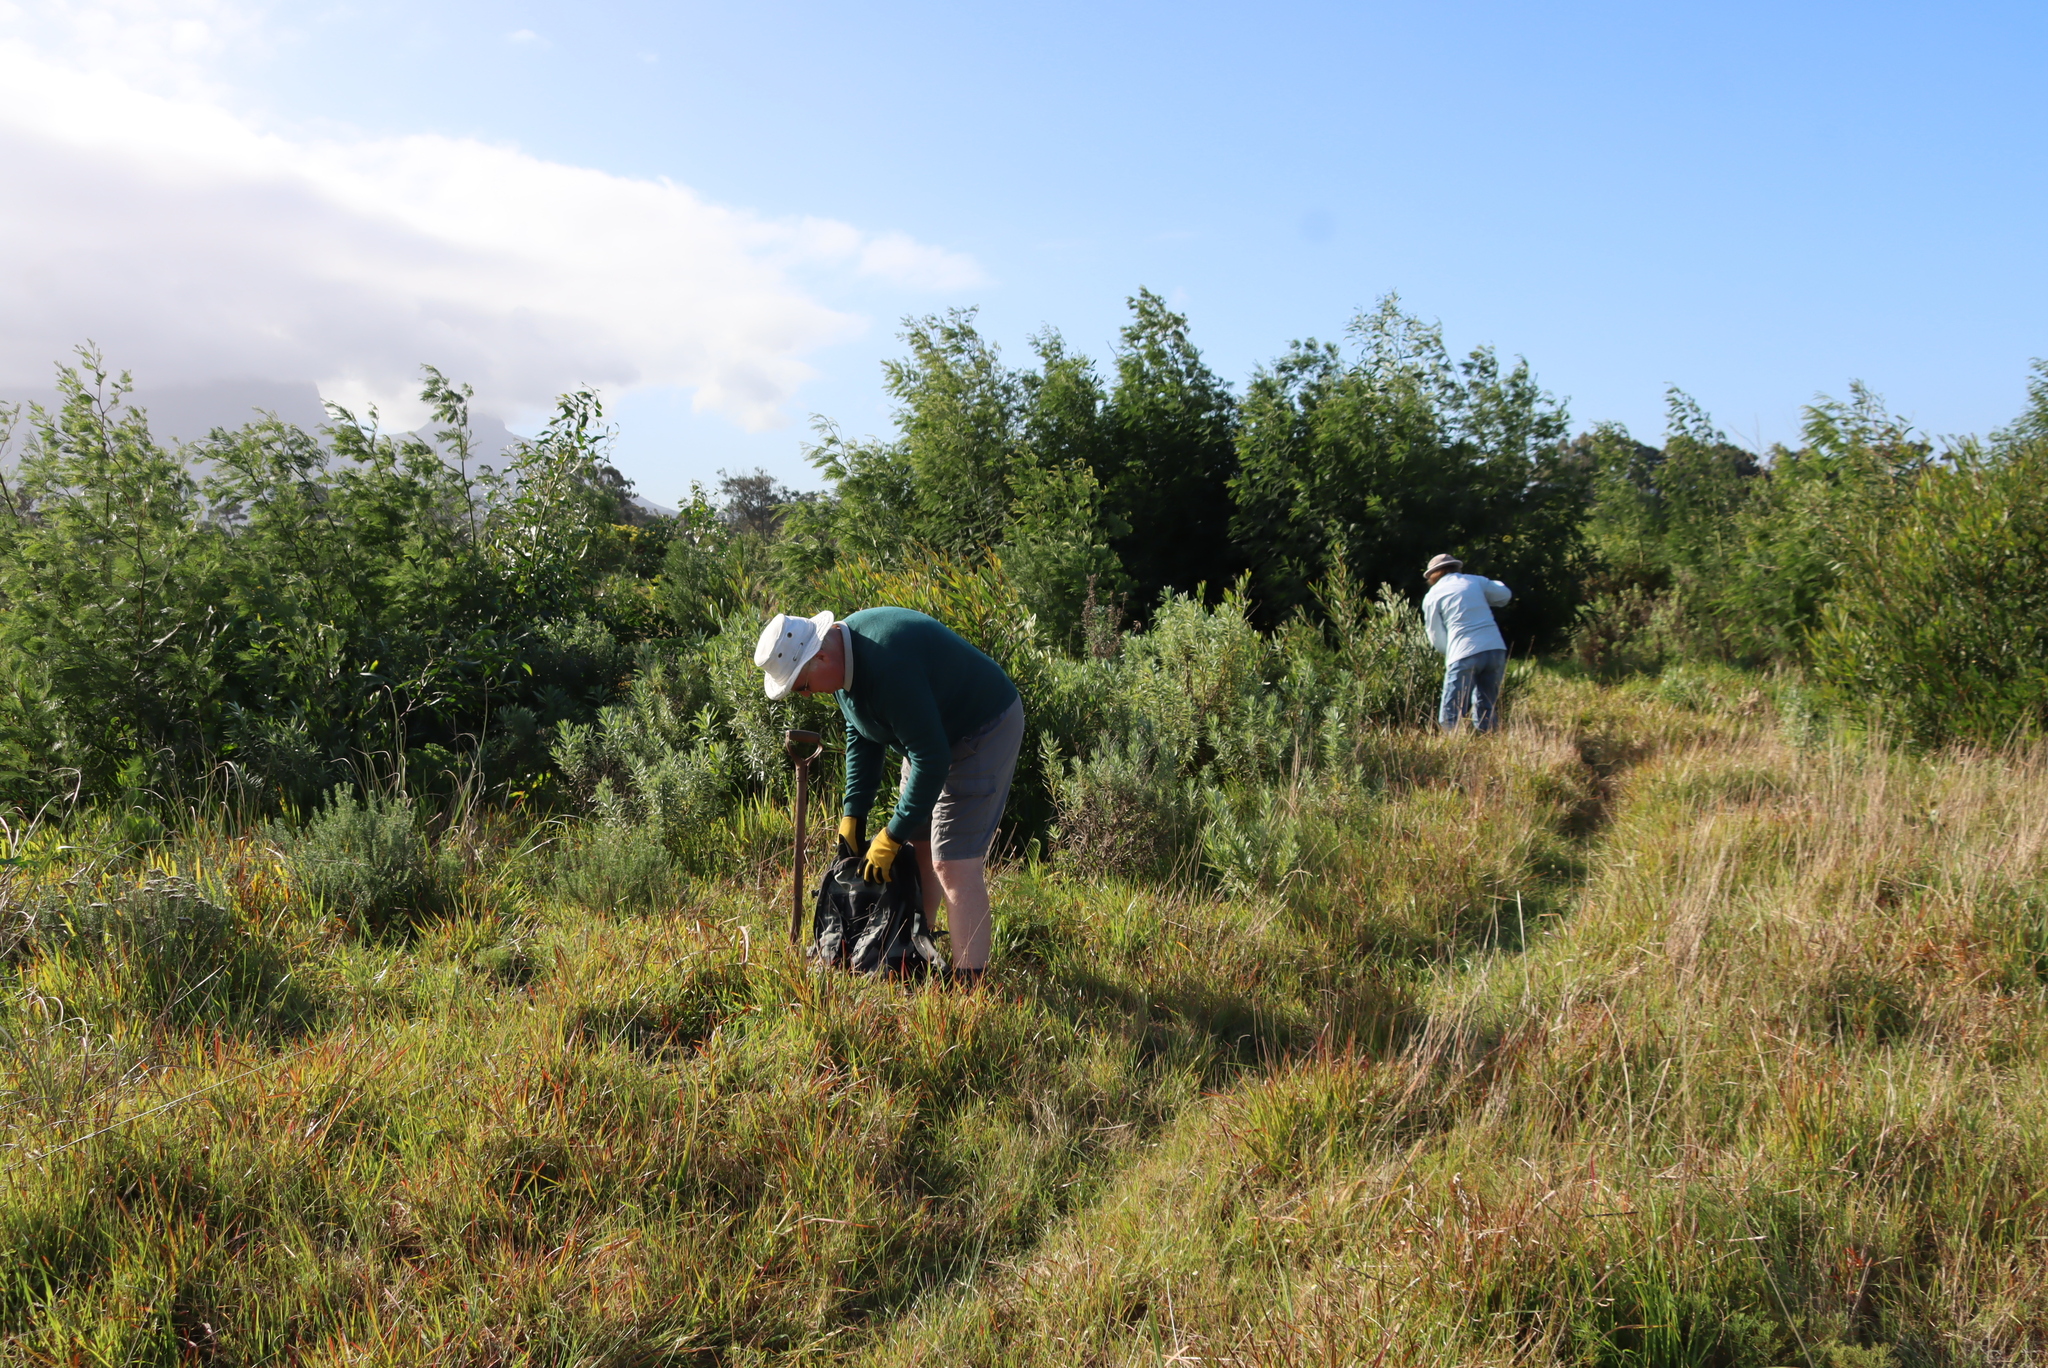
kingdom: Plantae
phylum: Tracheophyta
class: Magnoliopsida
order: Fabales
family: Fabaceae
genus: Acacia
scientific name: Acacia mearnsii
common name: Black wattle
